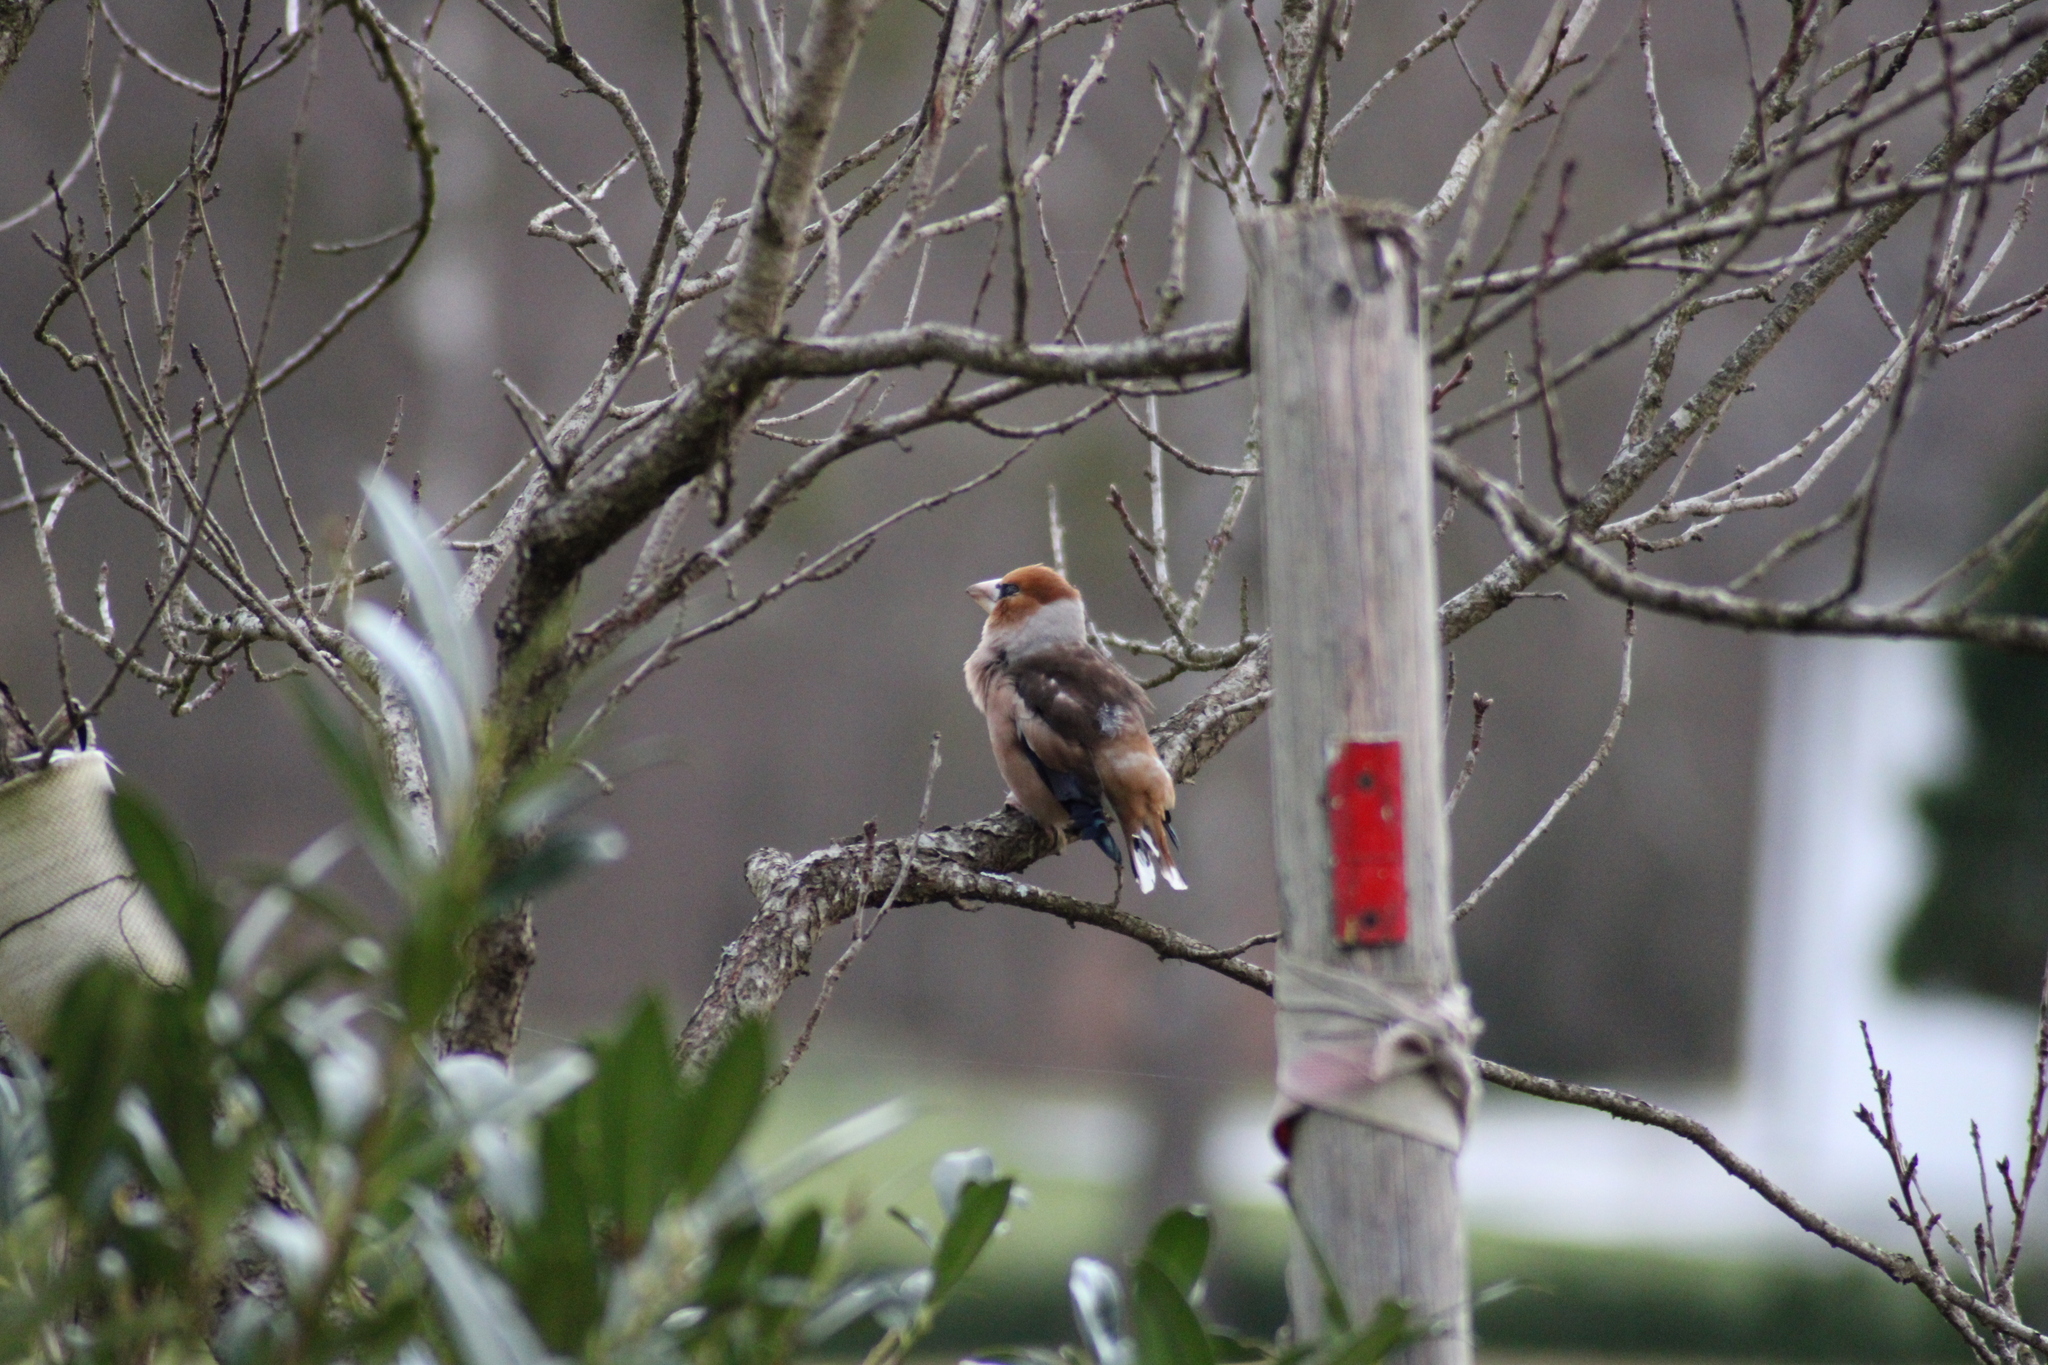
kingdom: Animalia
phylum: Chordata
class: Aves
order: Passeriformes
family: Fringillidae
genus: Coccothraustes
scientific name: Coccothraustes coccothraustes
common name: Hawfinch
